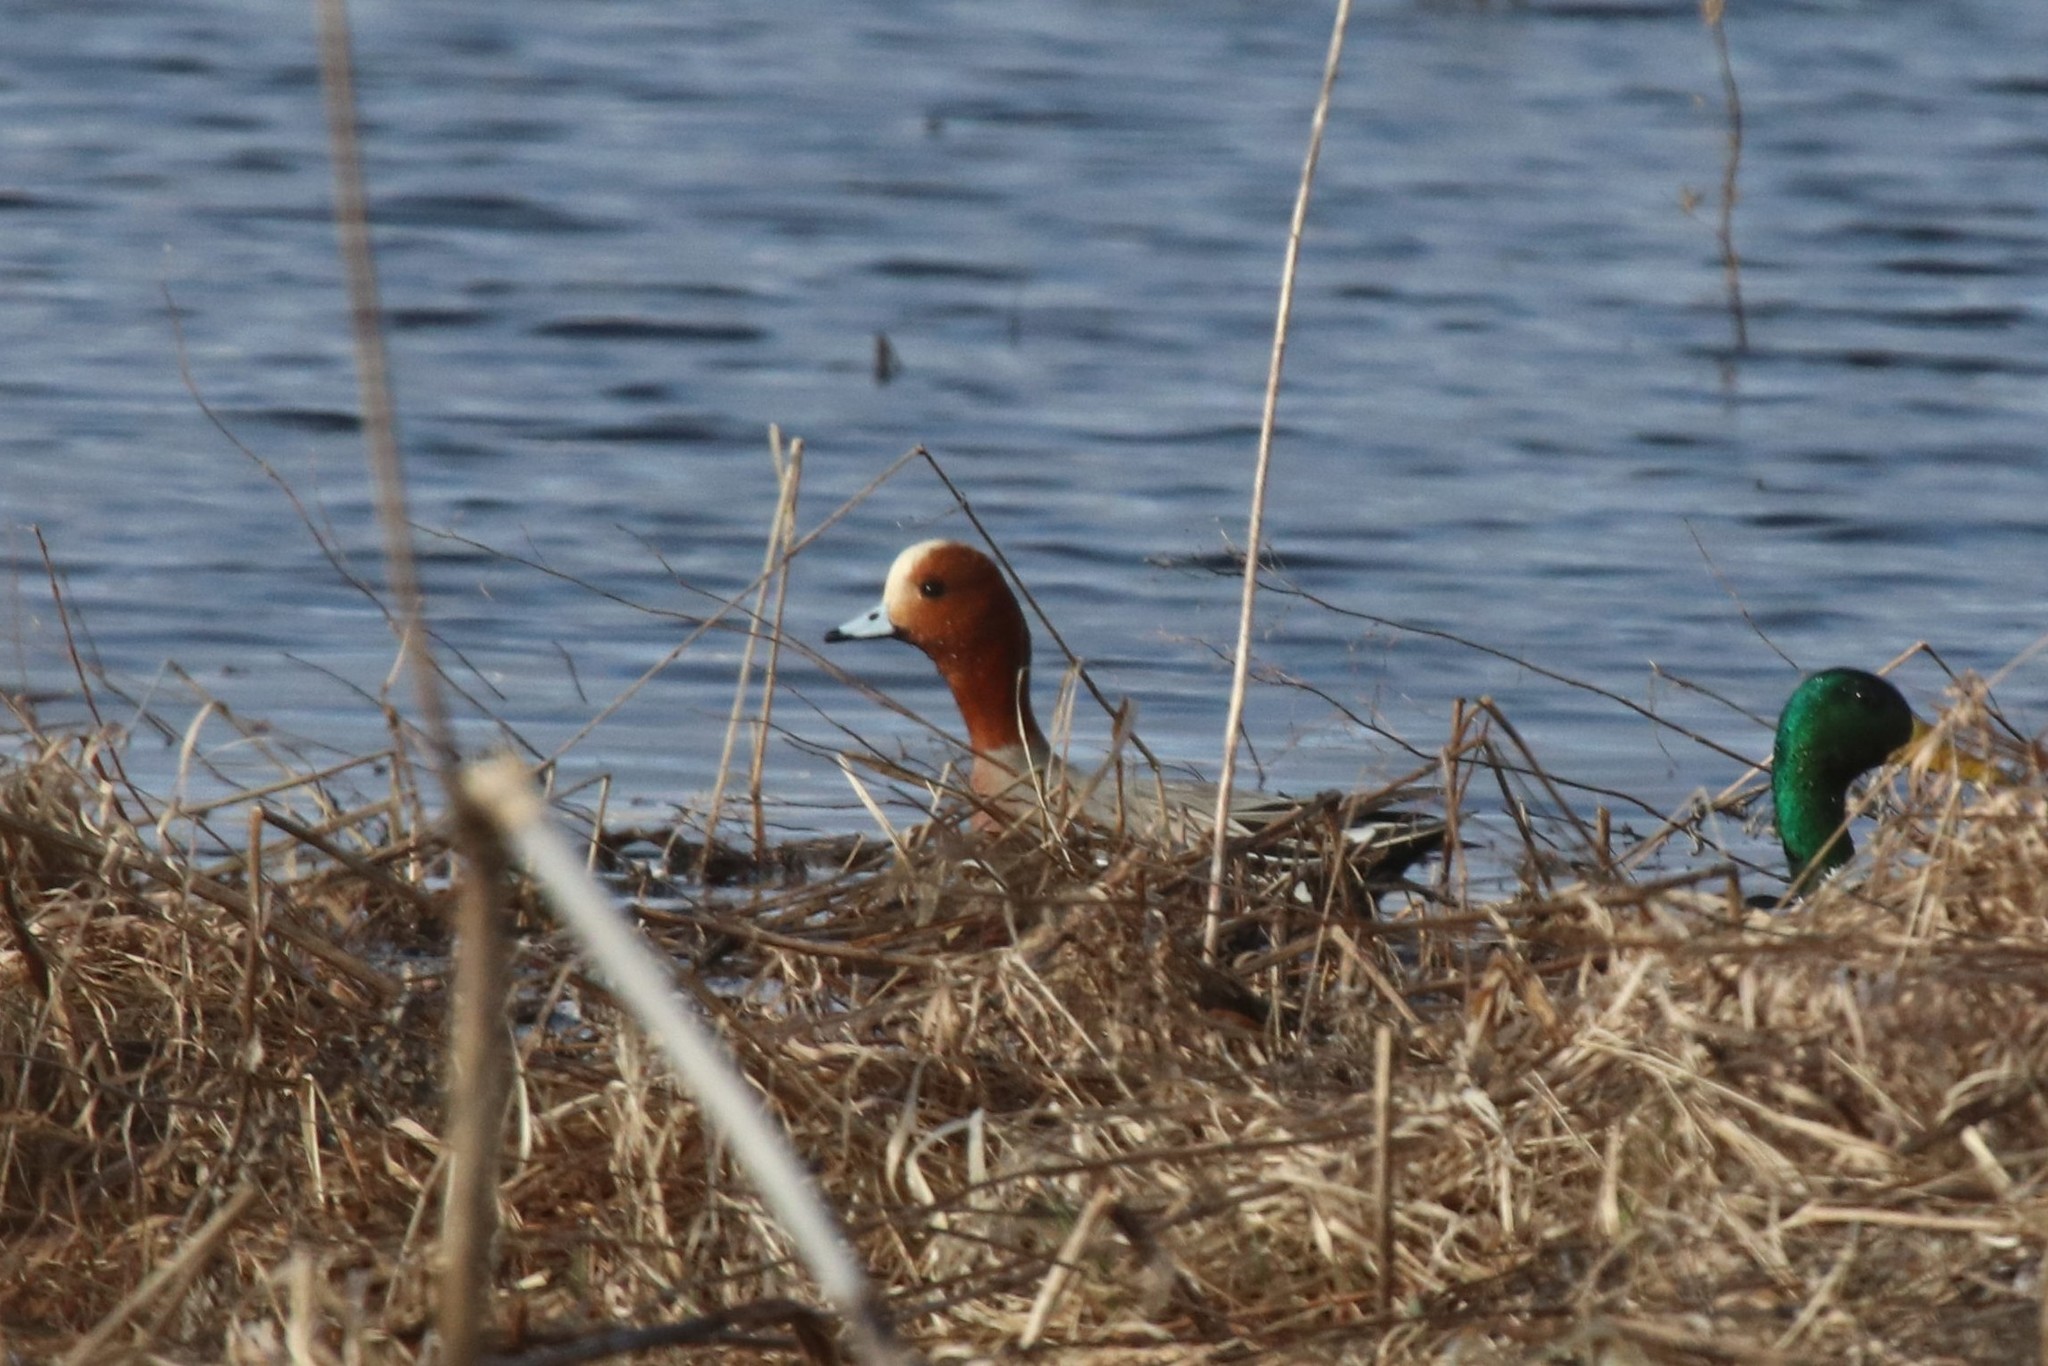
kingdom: Animalia
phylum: Chordata
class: Aves
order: Anseriformes
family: Anatidae
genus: Mareca
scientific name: Mareca penelope
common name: Eurasian wigeon
